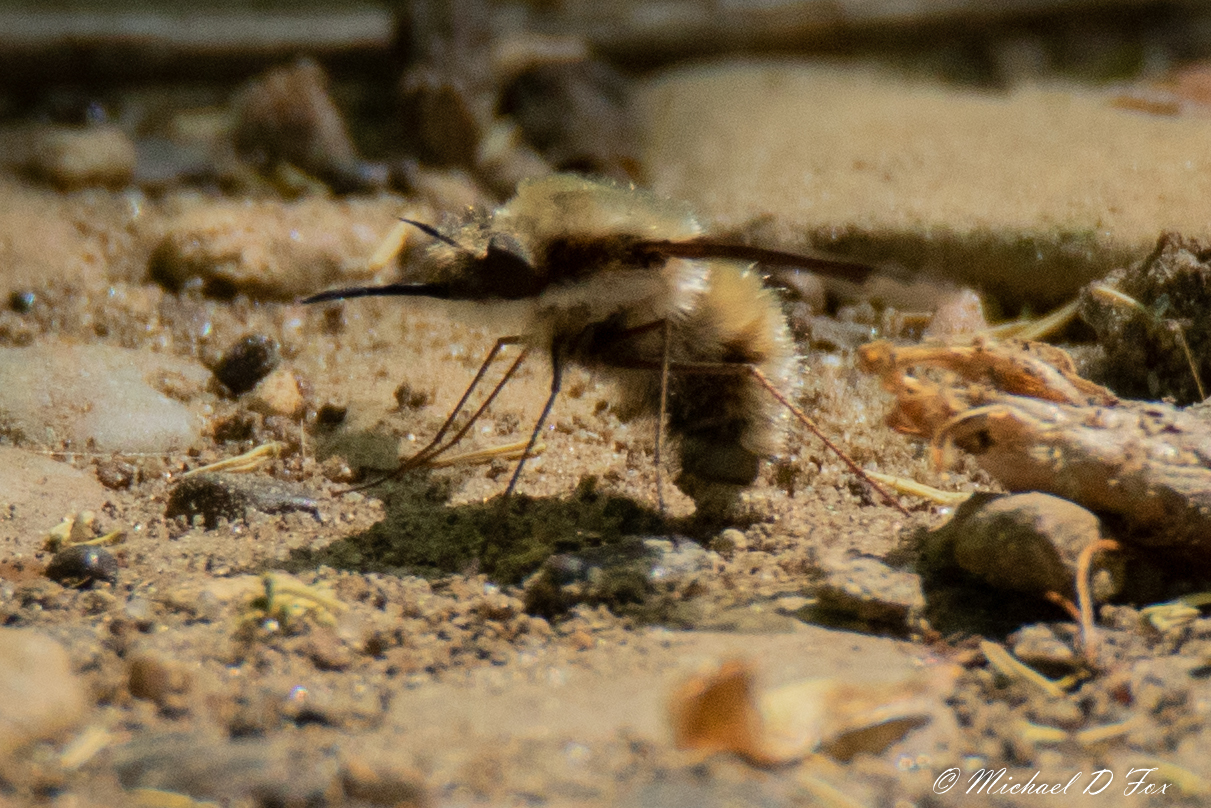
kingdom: Animalia
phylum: Arthropoda
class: Insecta
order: Diptera
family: Bombyliidae
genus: Bombylius
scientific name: Bombylius major
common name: Bee fly
